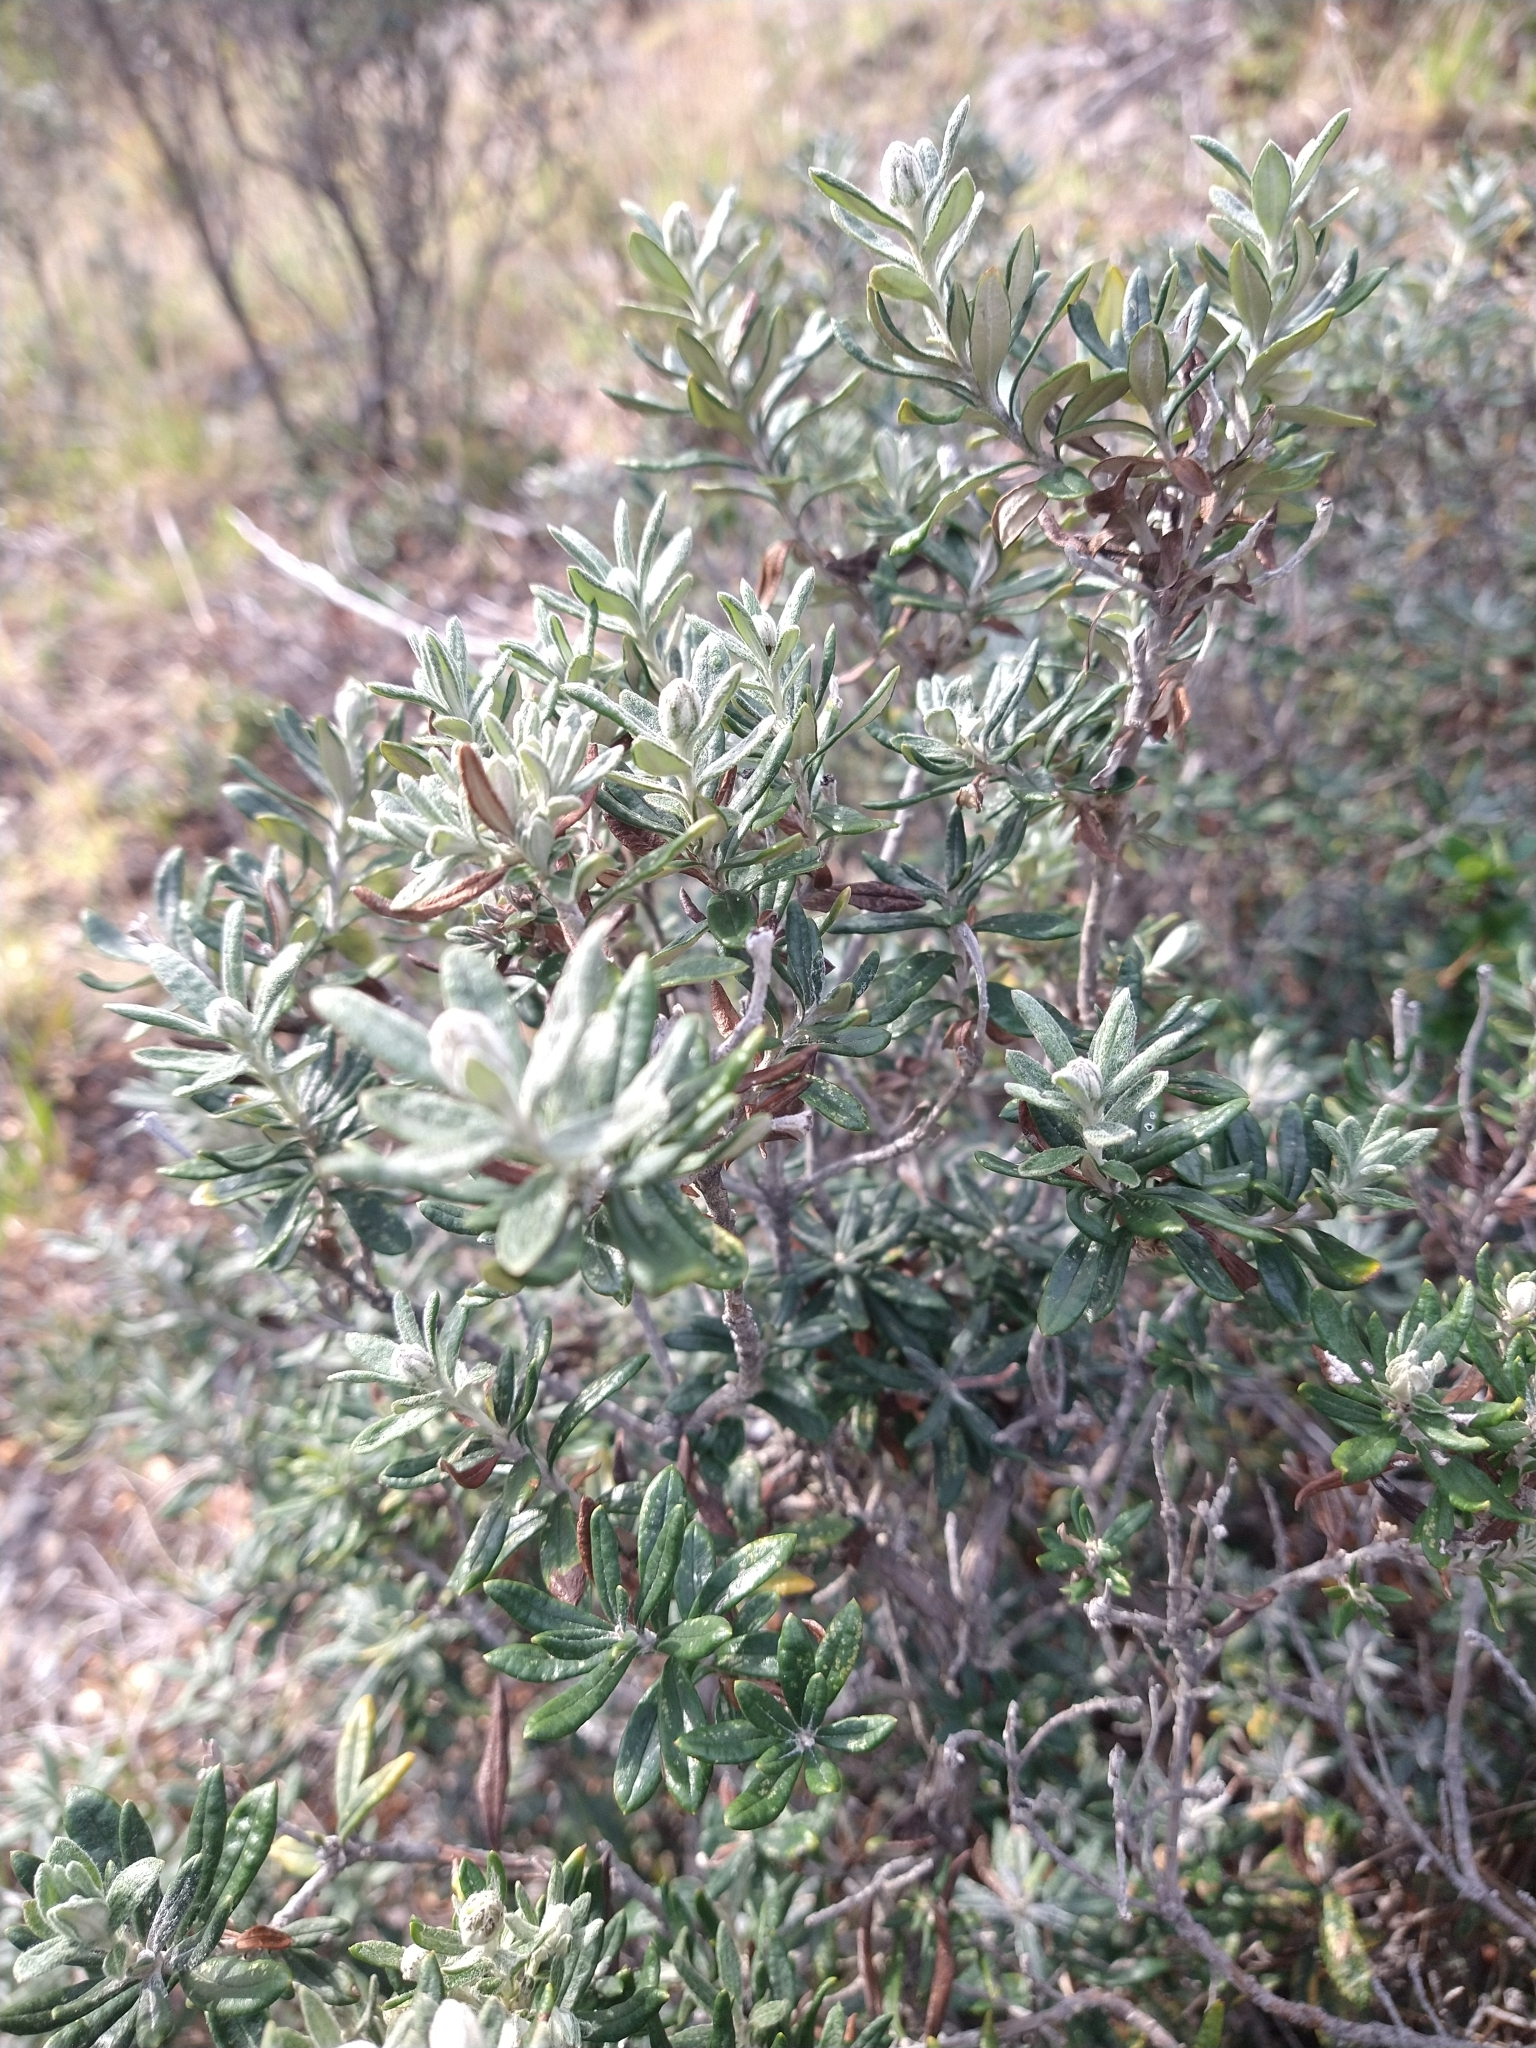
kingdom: Plantae
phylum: Tracheophyta
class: Magnoliopsida
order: Asterales
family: Asteraceae
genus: Chiliotrichum
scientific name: Chiliotrichum diffusum
